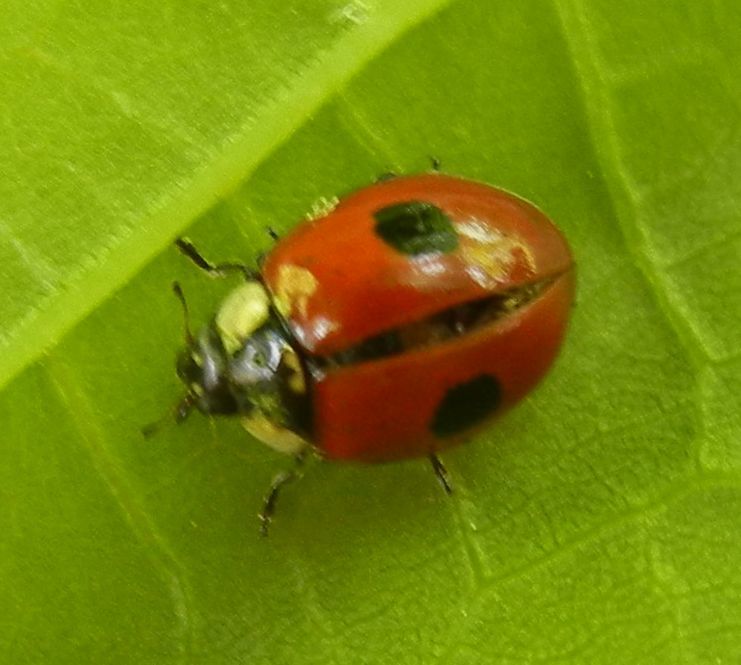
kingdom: Animalia
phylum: Arthropoda
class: Insecta
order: Coleoptera
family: Coccinellidae
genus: Adalia
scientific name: Adalia bipunctata
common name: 2-spot ladybird
